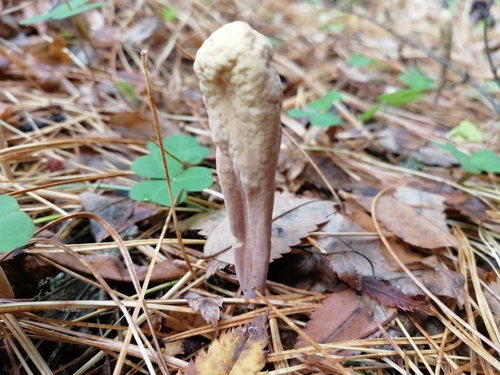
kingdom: Fungi
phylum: Basidiomycota
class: Agaricomycetes
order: Gomphales
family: Clavariadelphaceae
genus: Clavariadelphus
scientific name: Clavariadelphus pistillaris
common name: Giant club
